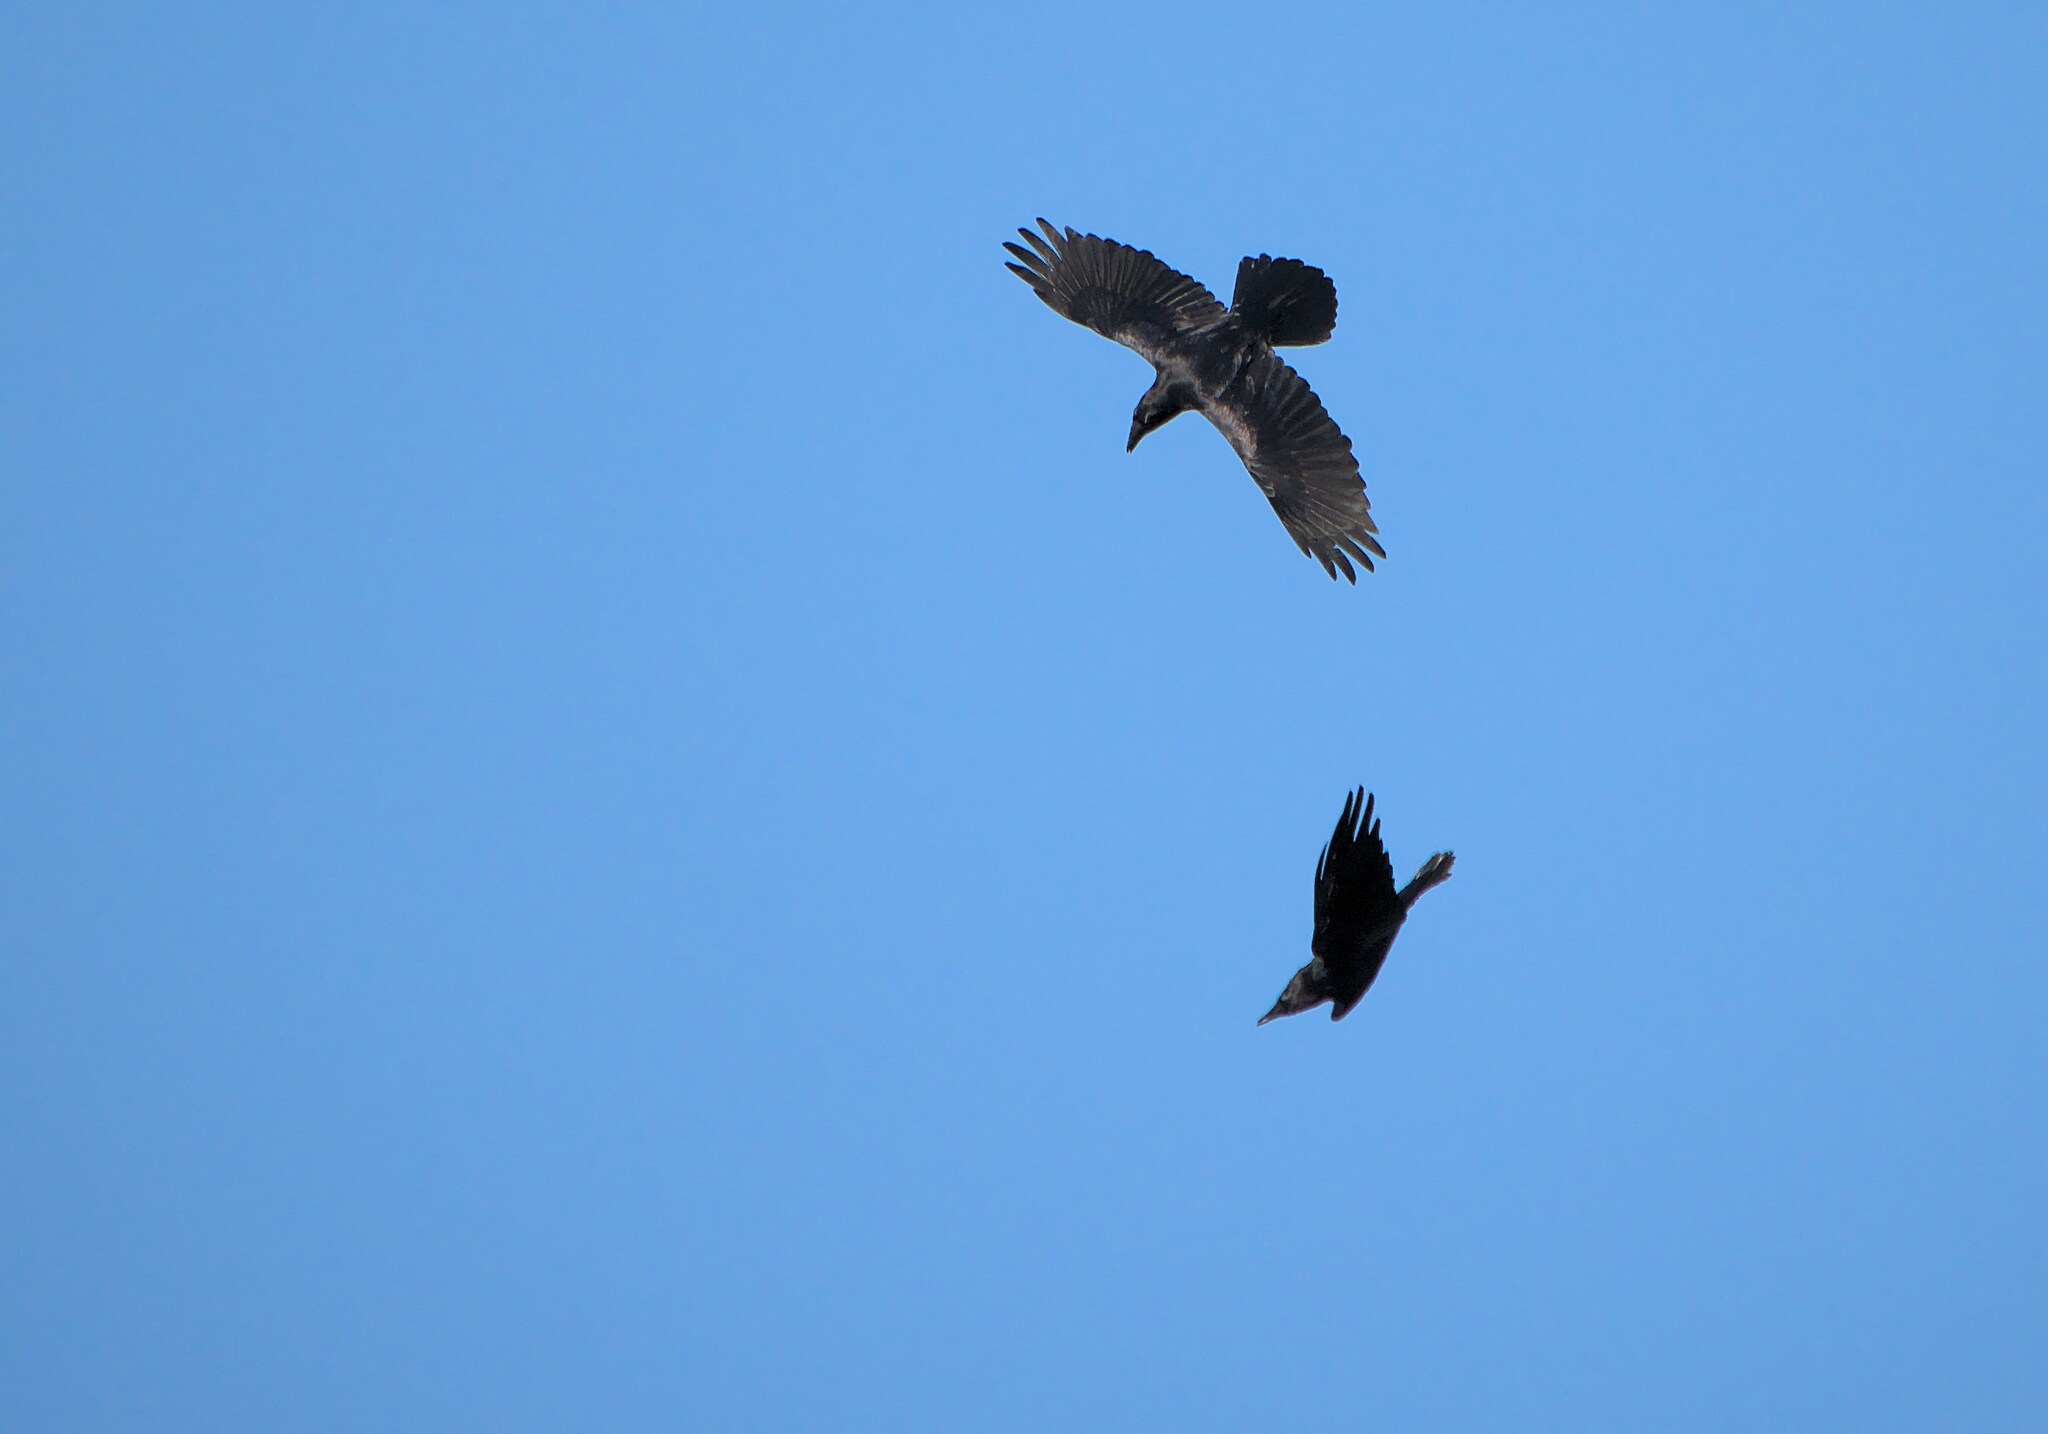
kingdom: Animalia
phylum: Chordata
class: Aves
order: Passeriformes
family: Corvidae
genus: Corvus
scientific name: Corvus corax
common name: Common raven
